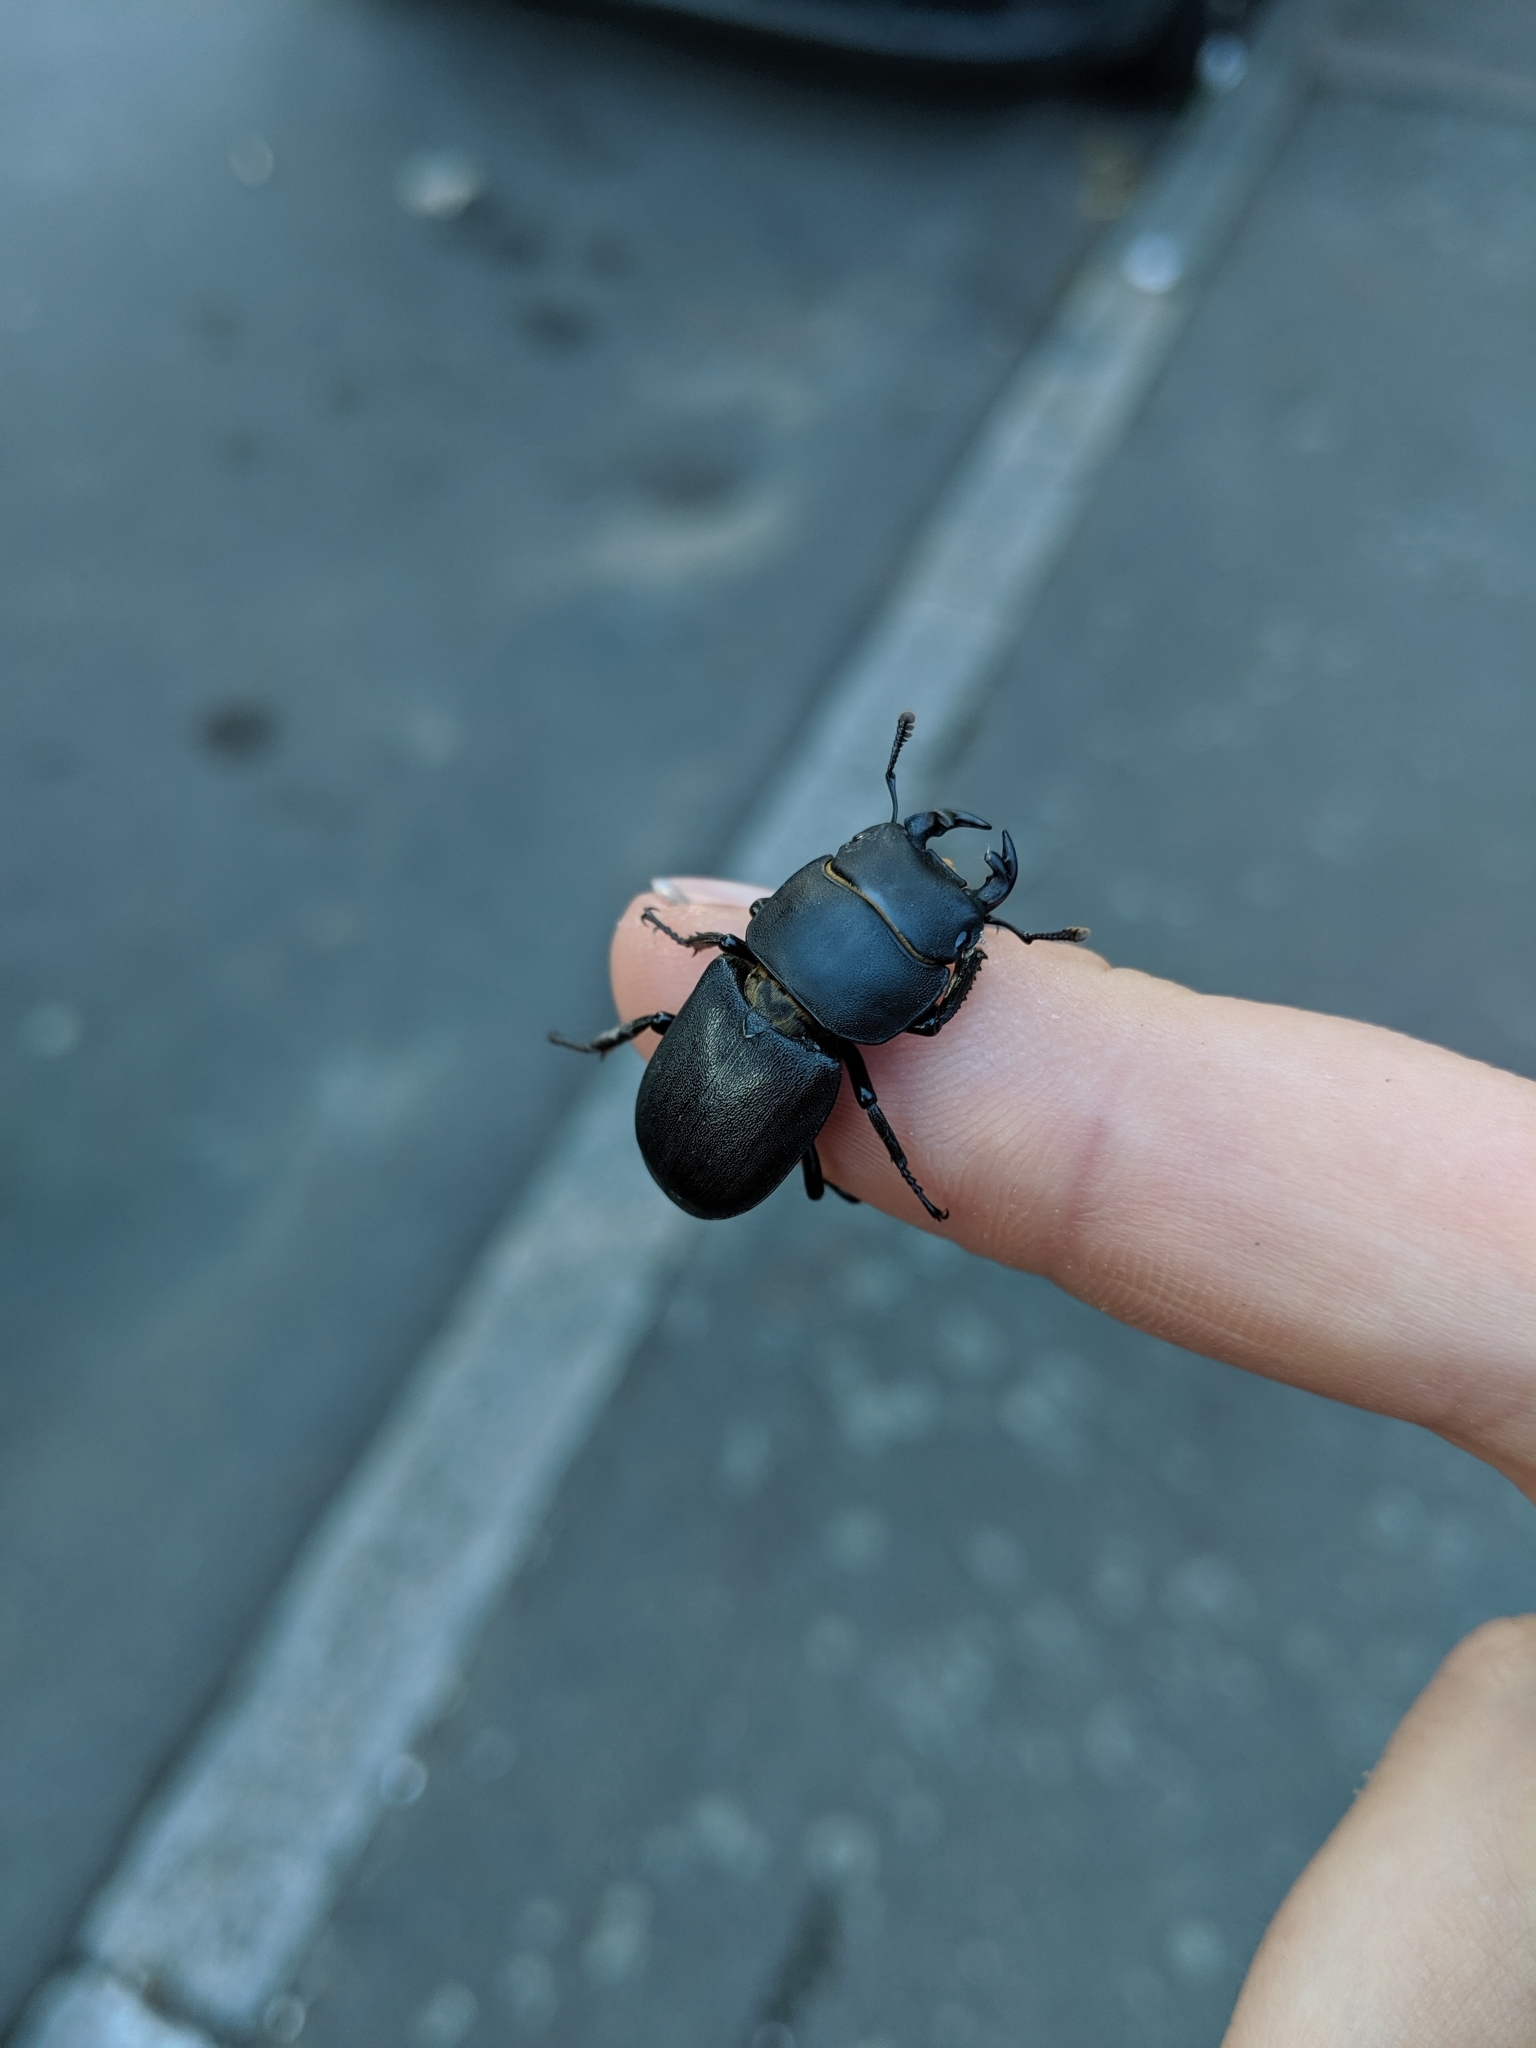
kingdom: Animalia
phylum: Arthropoda
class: Insecta
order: Coleoptera
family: Lucanidae
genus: Dorcus
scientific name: Dorcus parallelipipedus
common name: Lesser stag beetle
